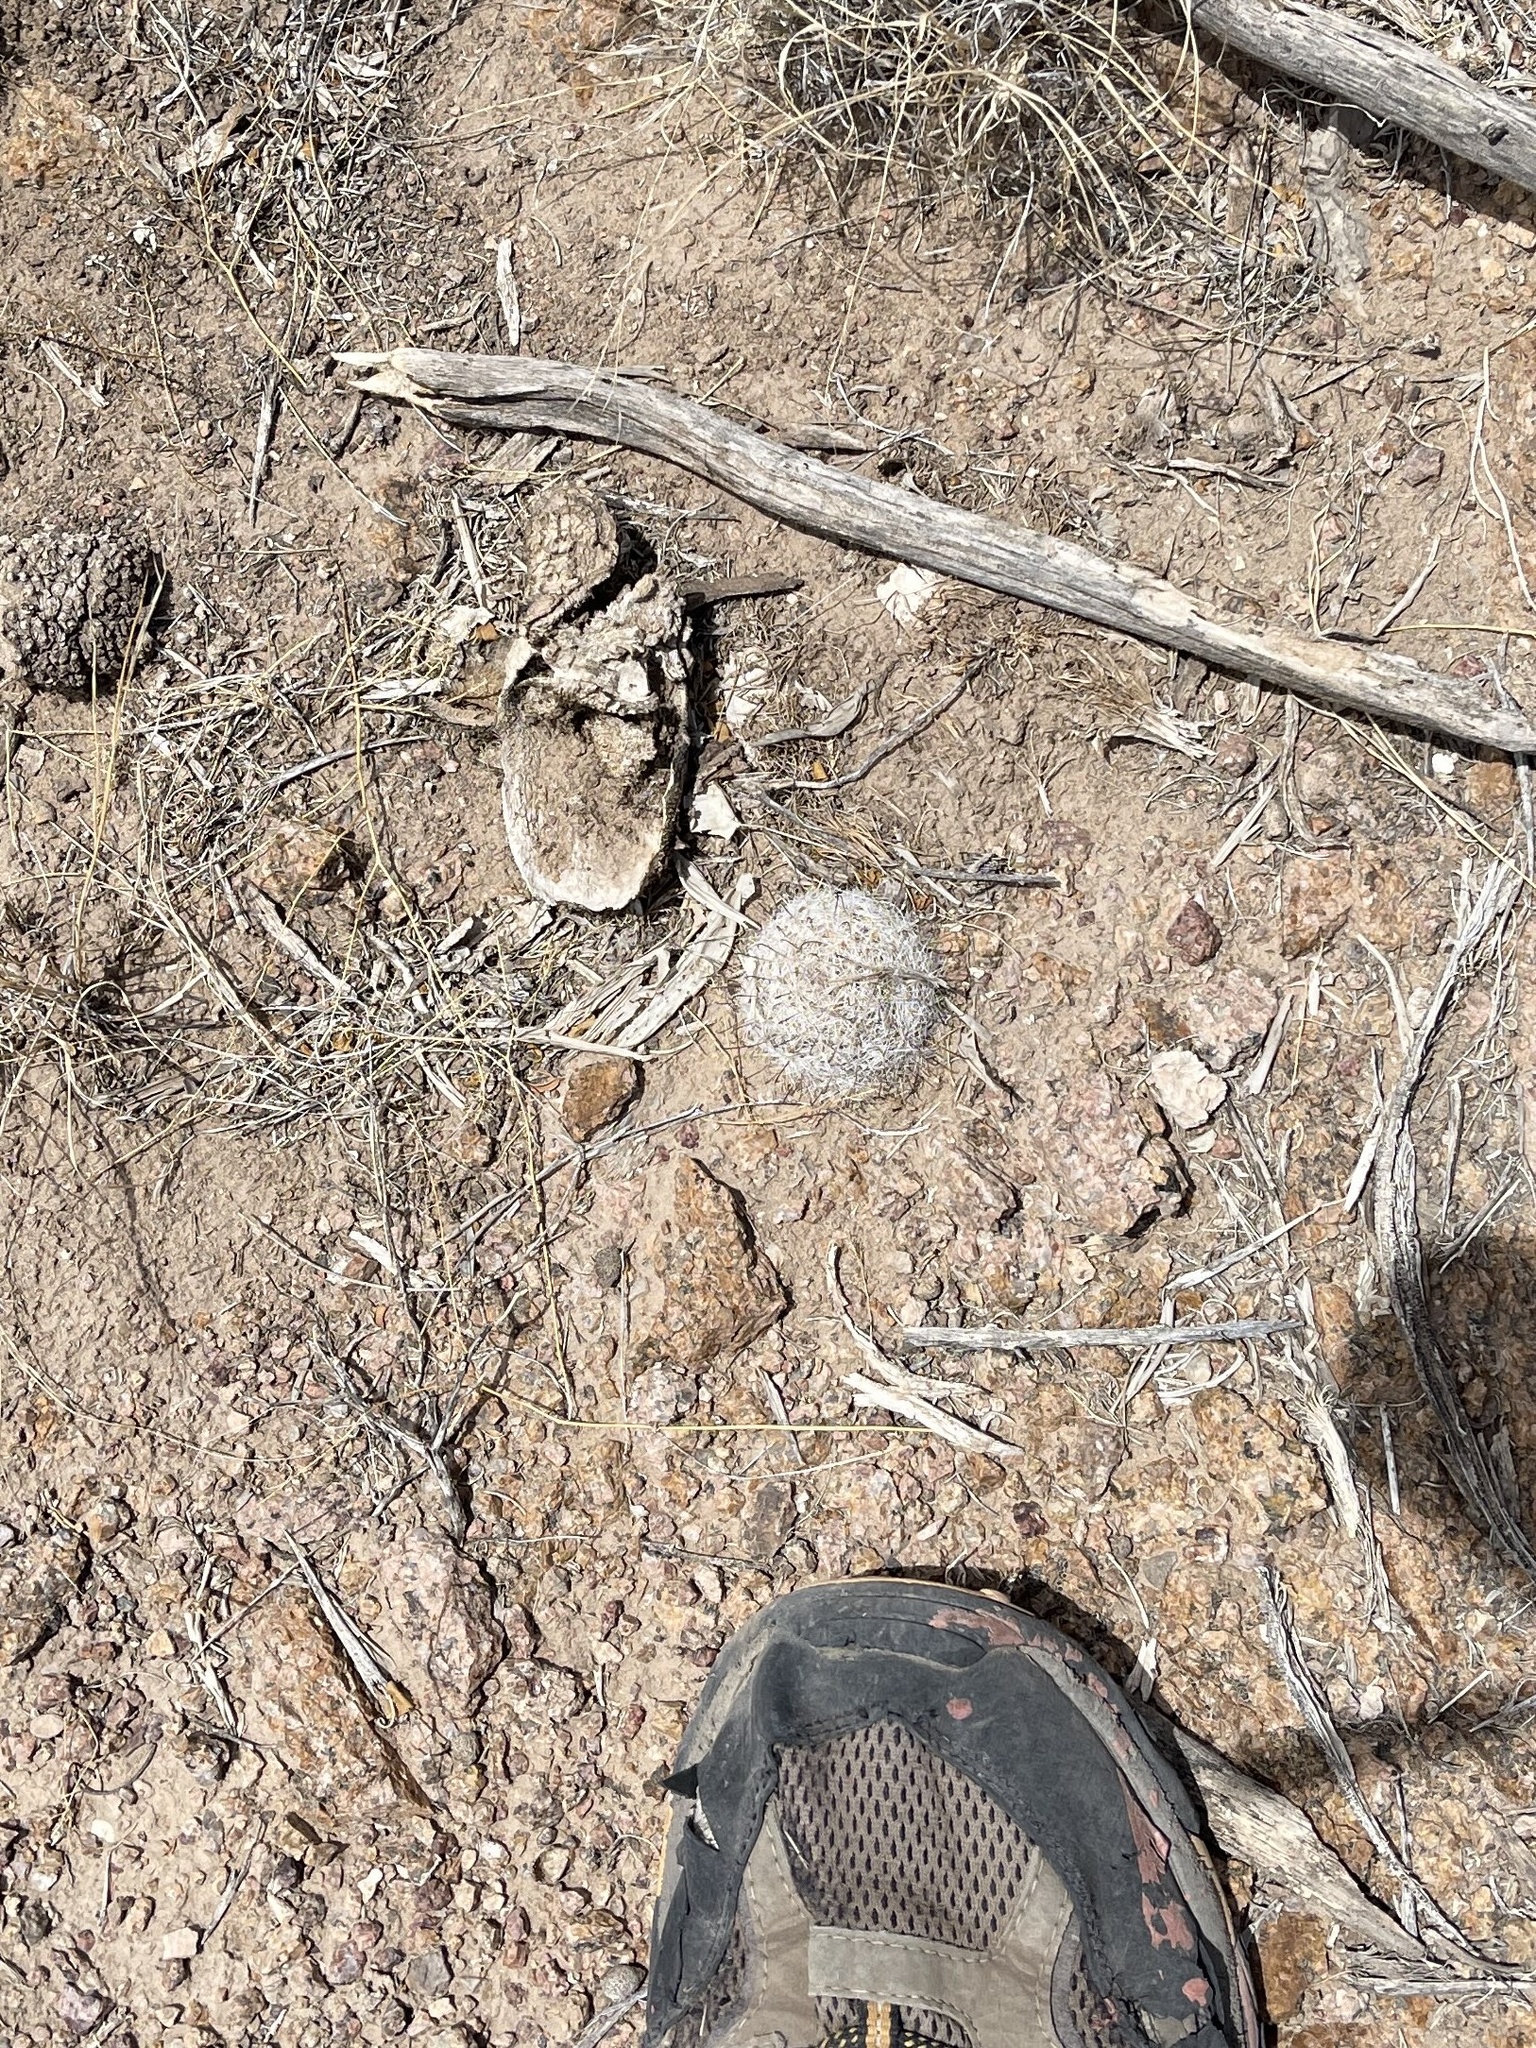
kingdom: Plantae
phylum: Tracheophyta
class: Magnoliopsida
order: Caryophyllales
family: Cactaceae
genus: Cochemiea
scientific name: Cochemiea grahamii
